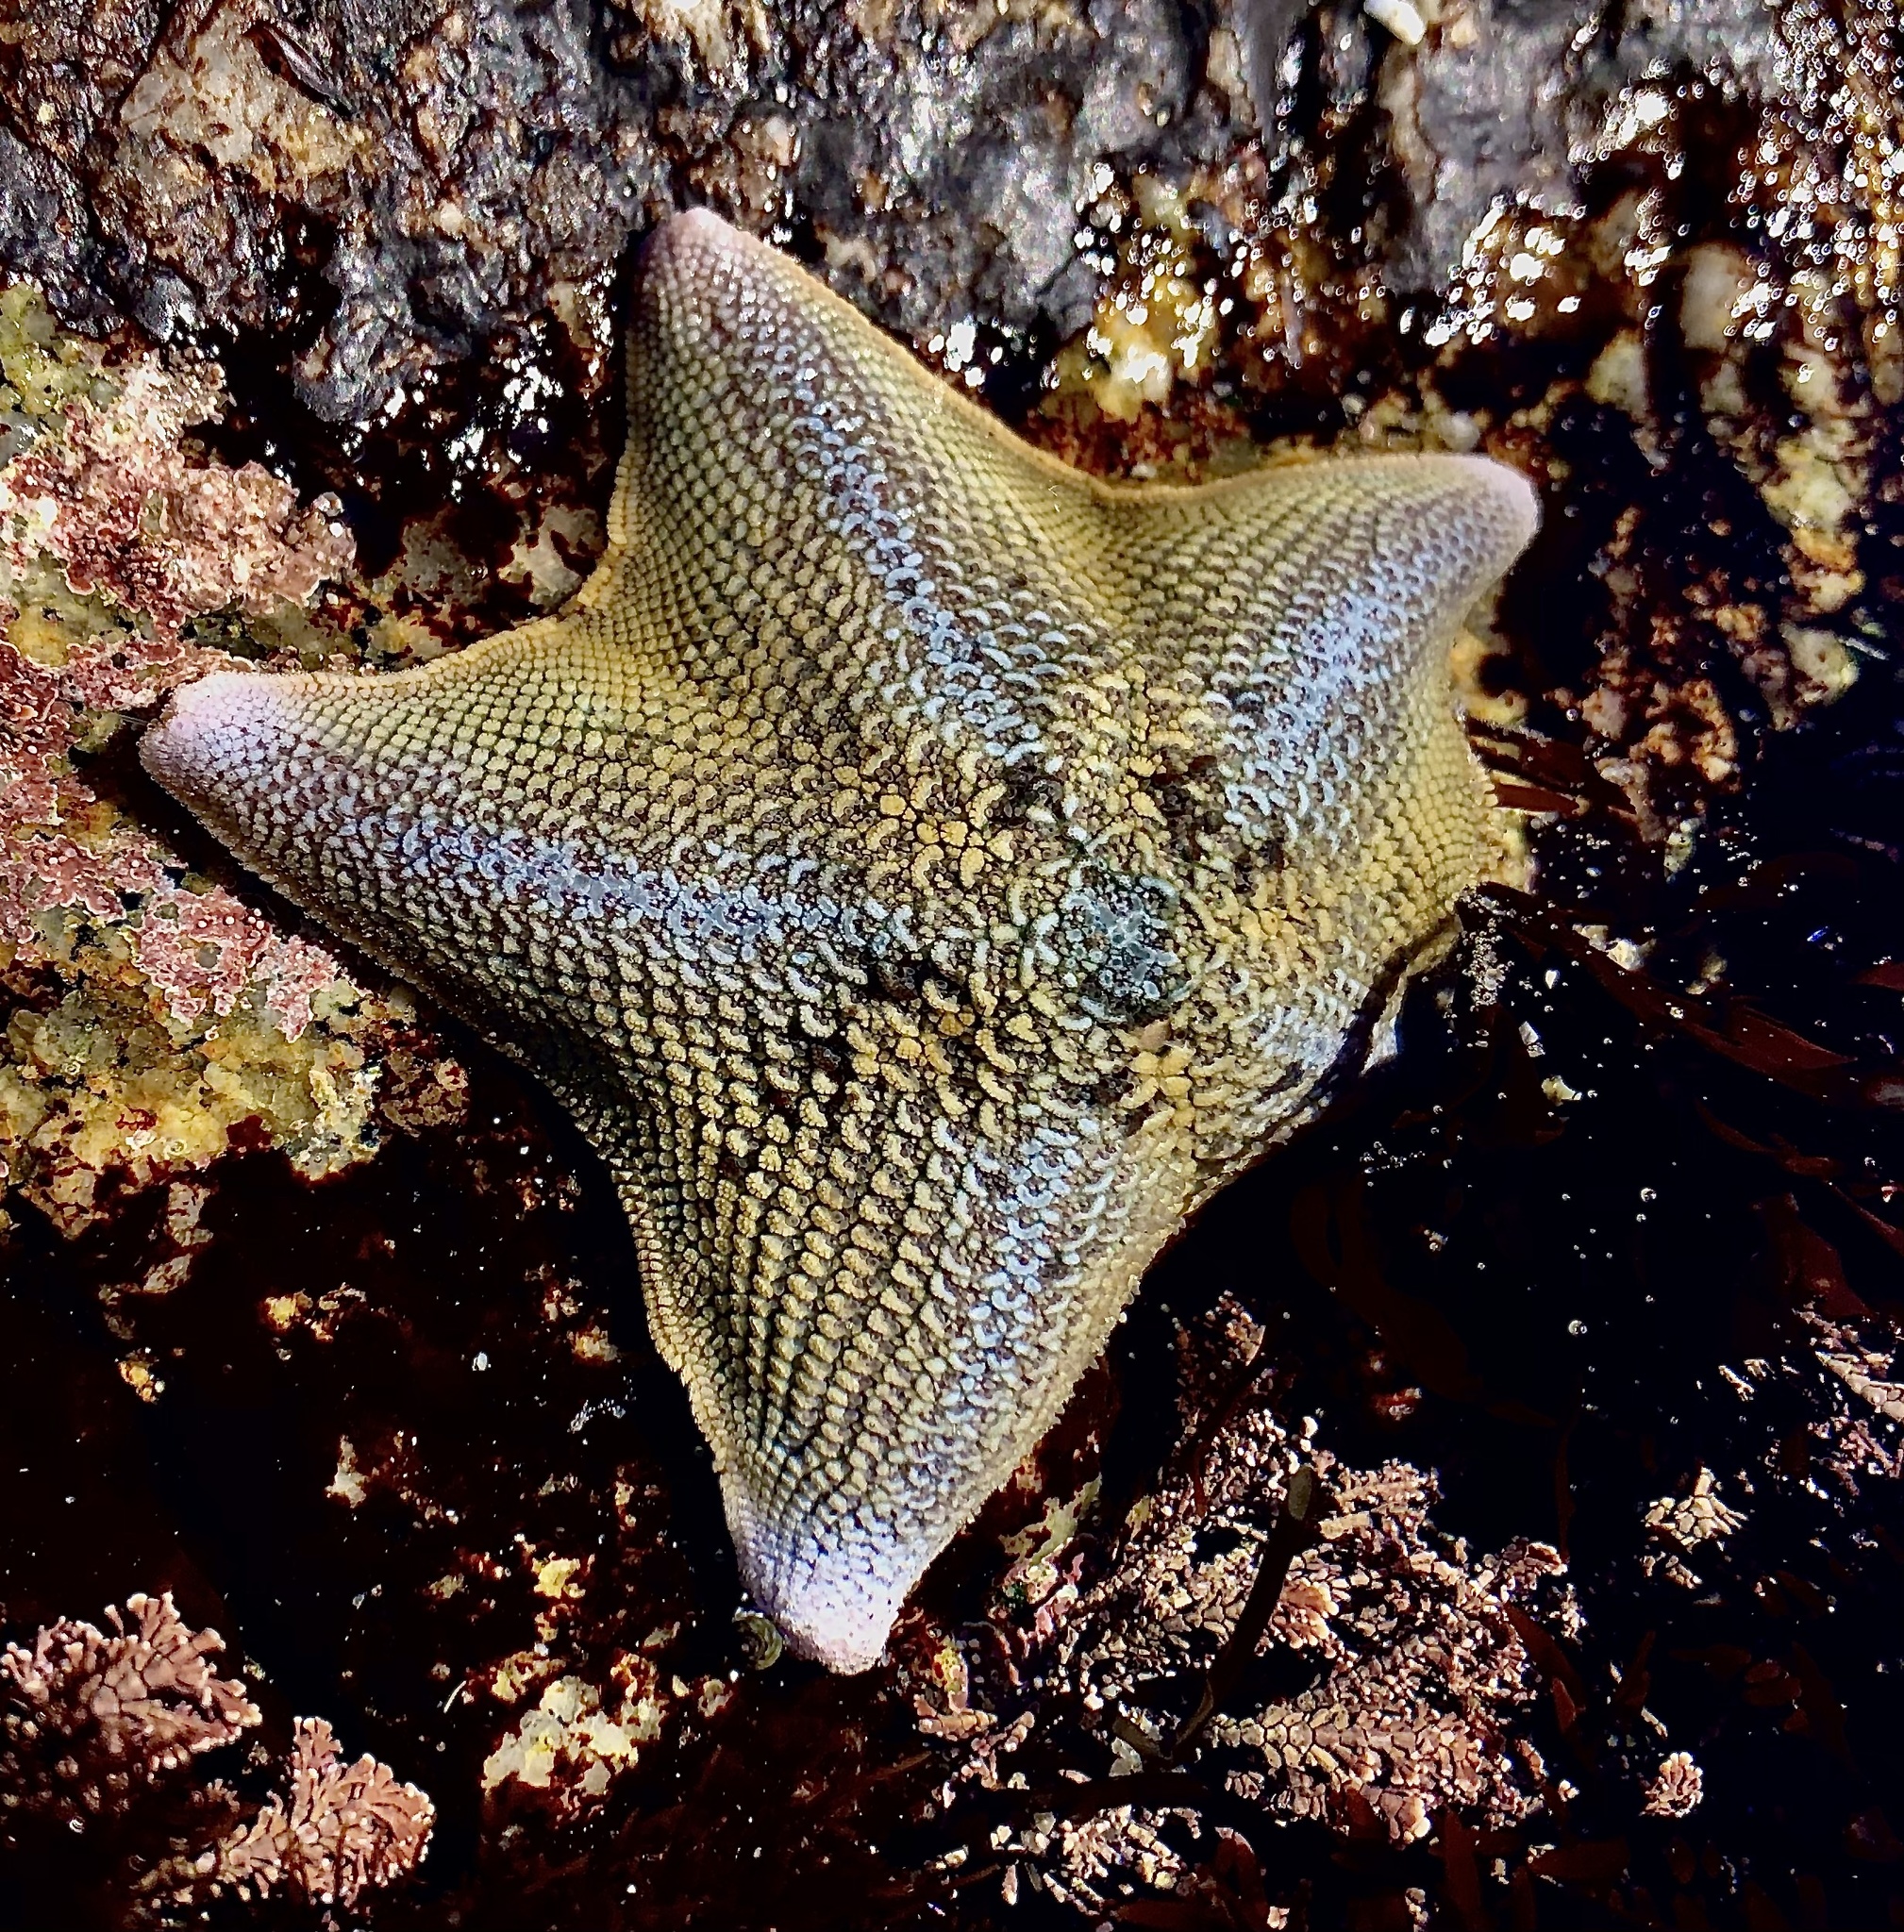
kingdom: Animalia
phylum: Echinodermata
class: Asteroidea
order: Valvatida
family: Asterinidae
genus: Patiria
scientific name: Patiria miniata
